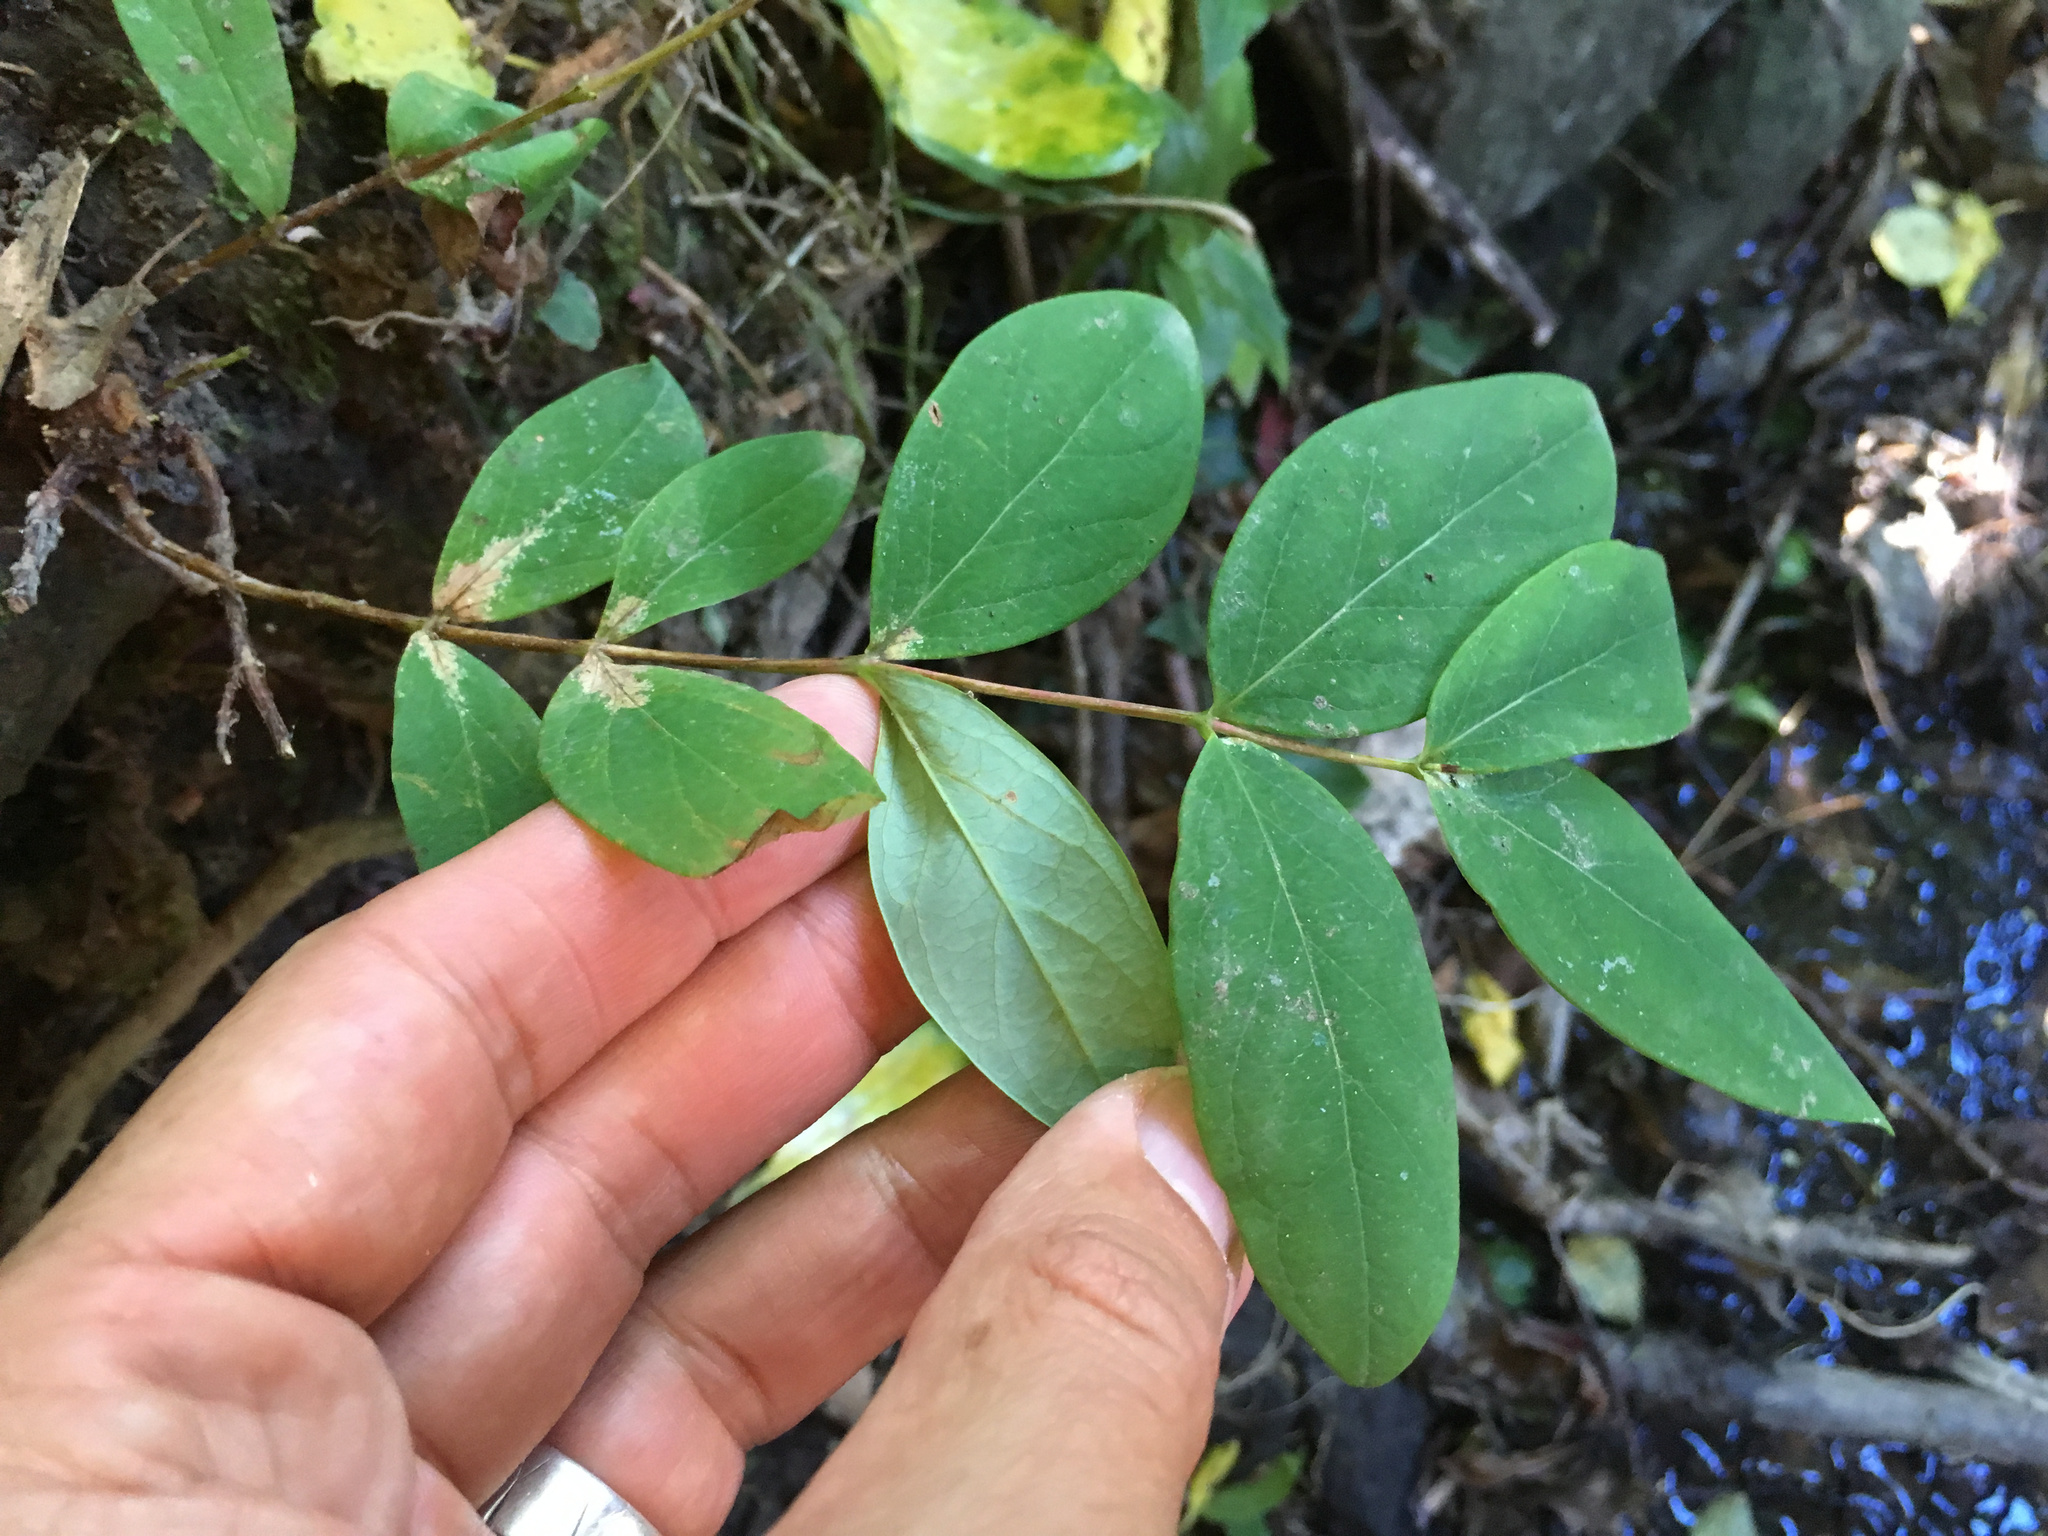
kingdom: Plantae
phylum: Tracheophyta
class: Magnoliopsida
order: Malpighiales
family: Hypericaceae
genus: Hypericum
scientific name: Hypericum calycinum
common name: Rose-of-sharon
